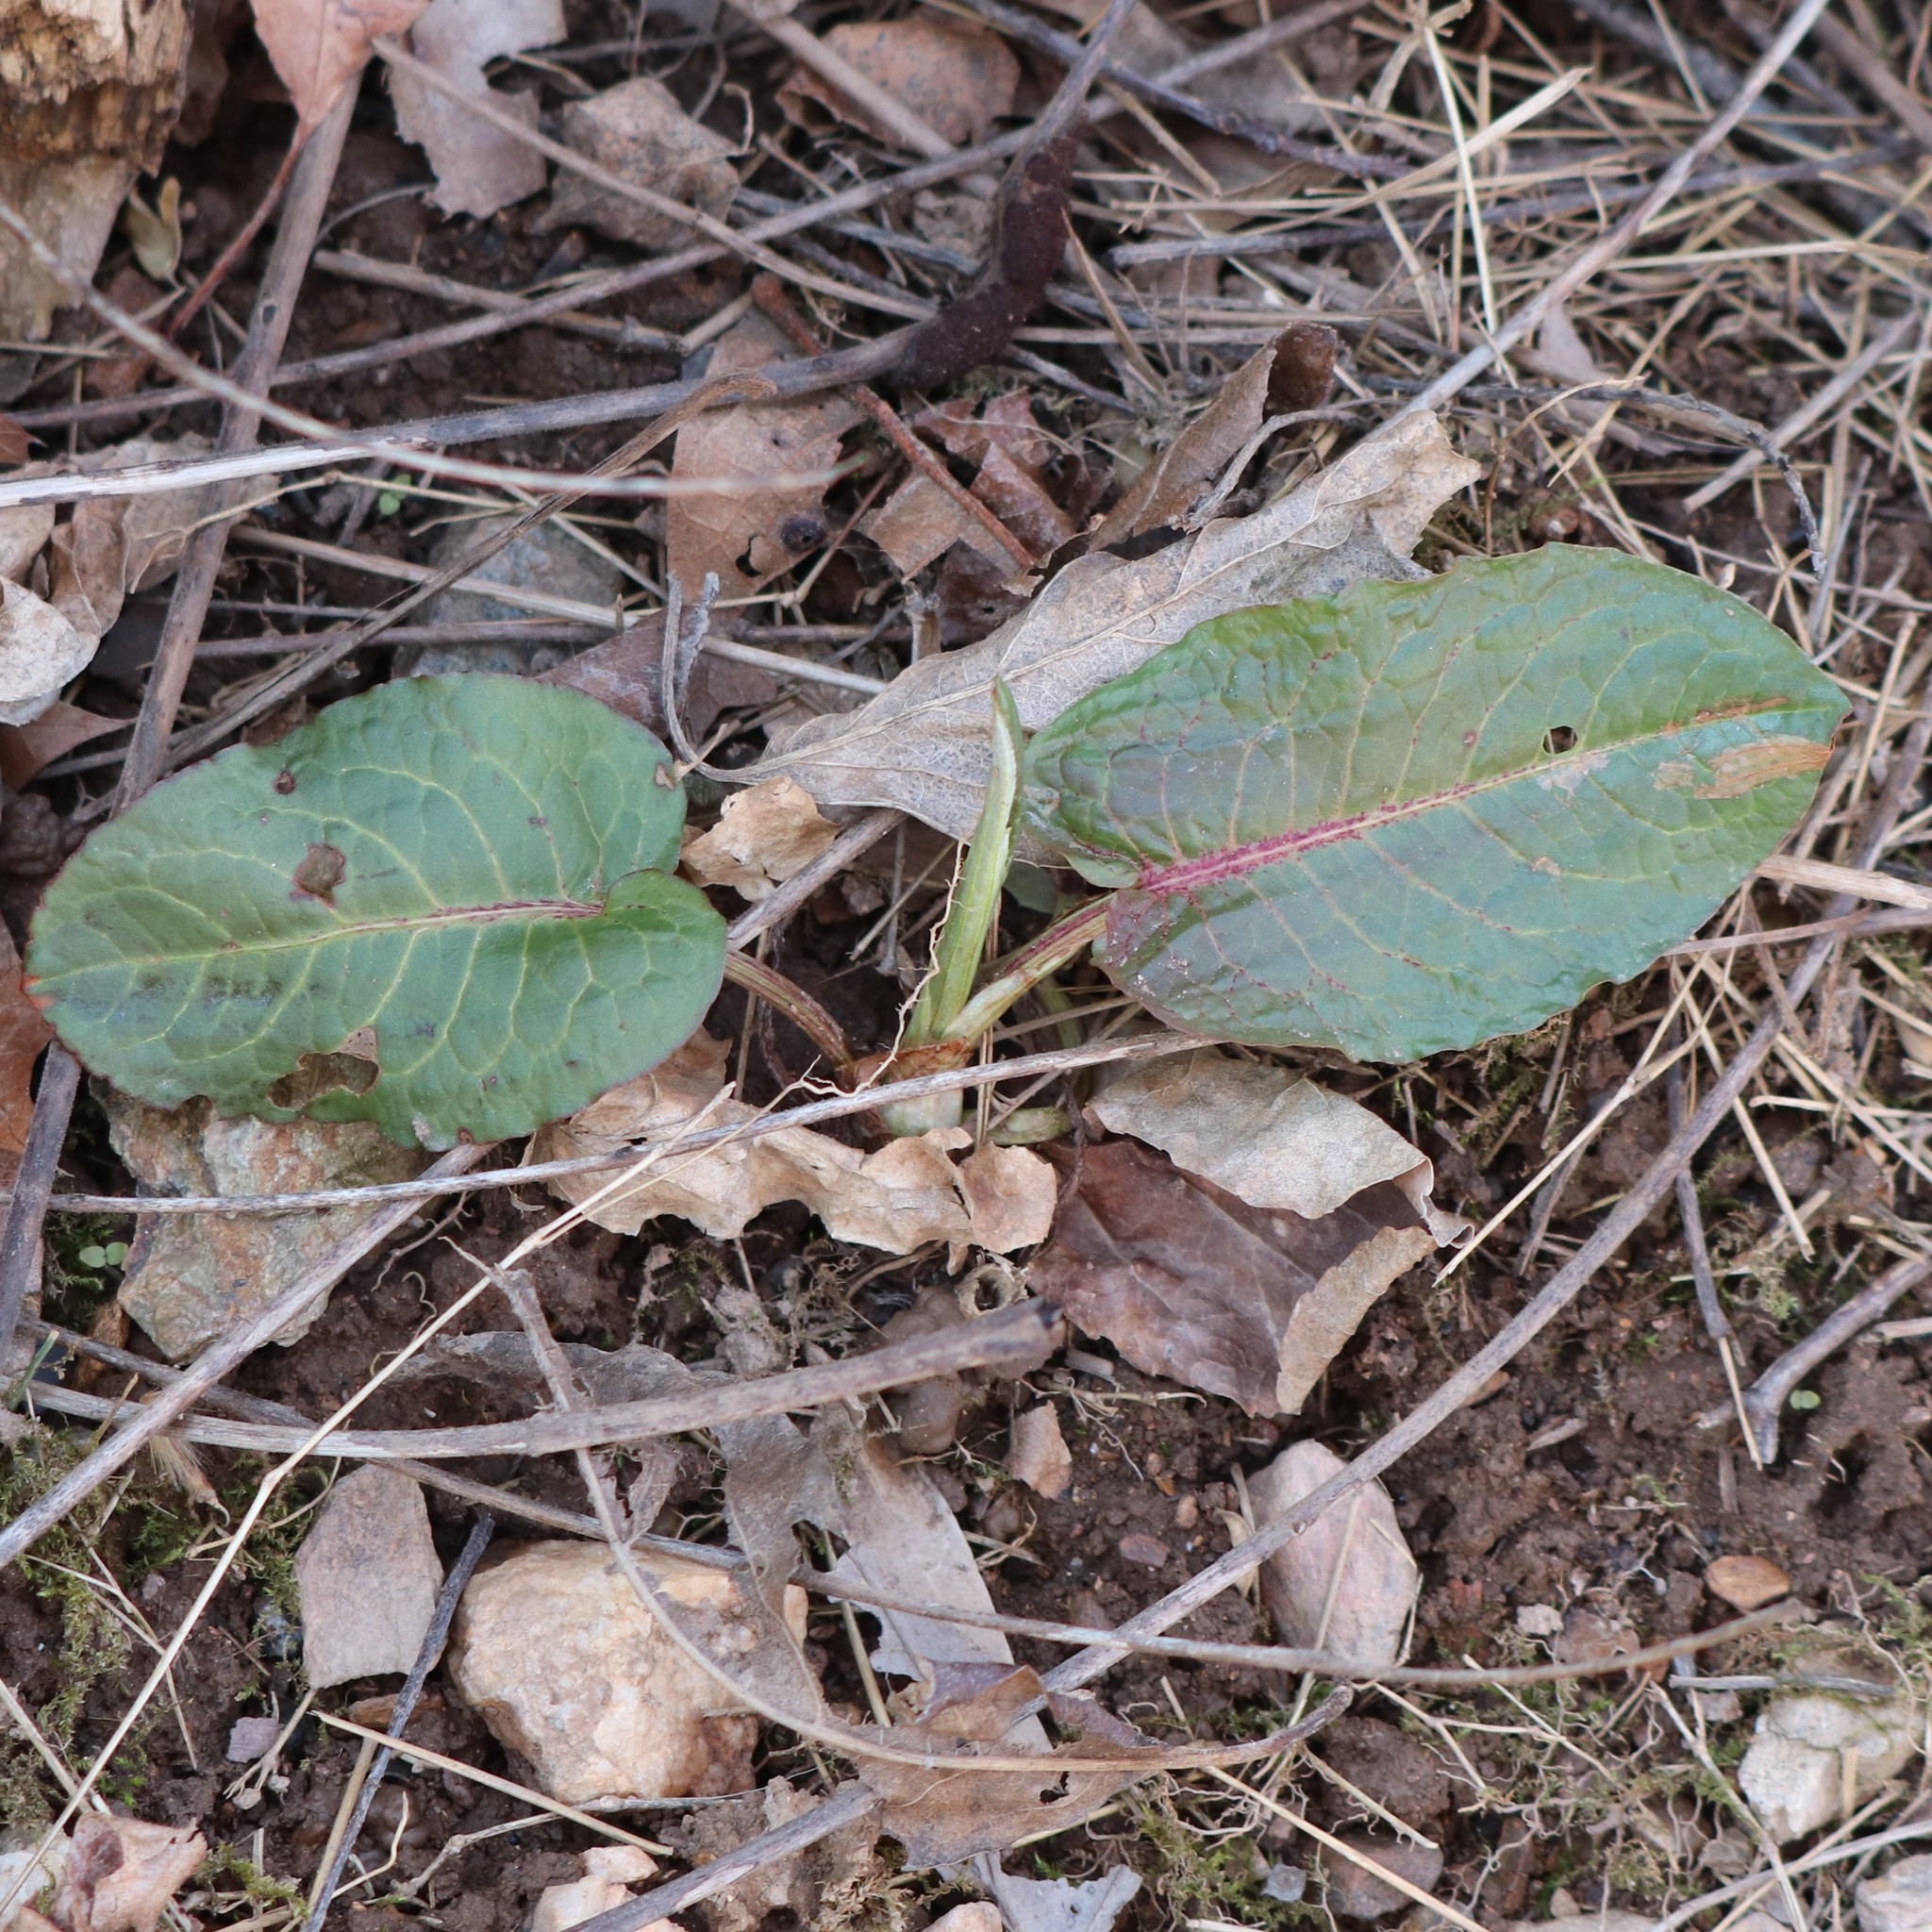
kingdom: Plantae
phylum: Tracheophyta
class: Magnoliopsida
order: Caryophyllales
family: Polygonaceae
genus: Rumex
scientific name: Rumex obtusifolius
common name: Bitter dock
